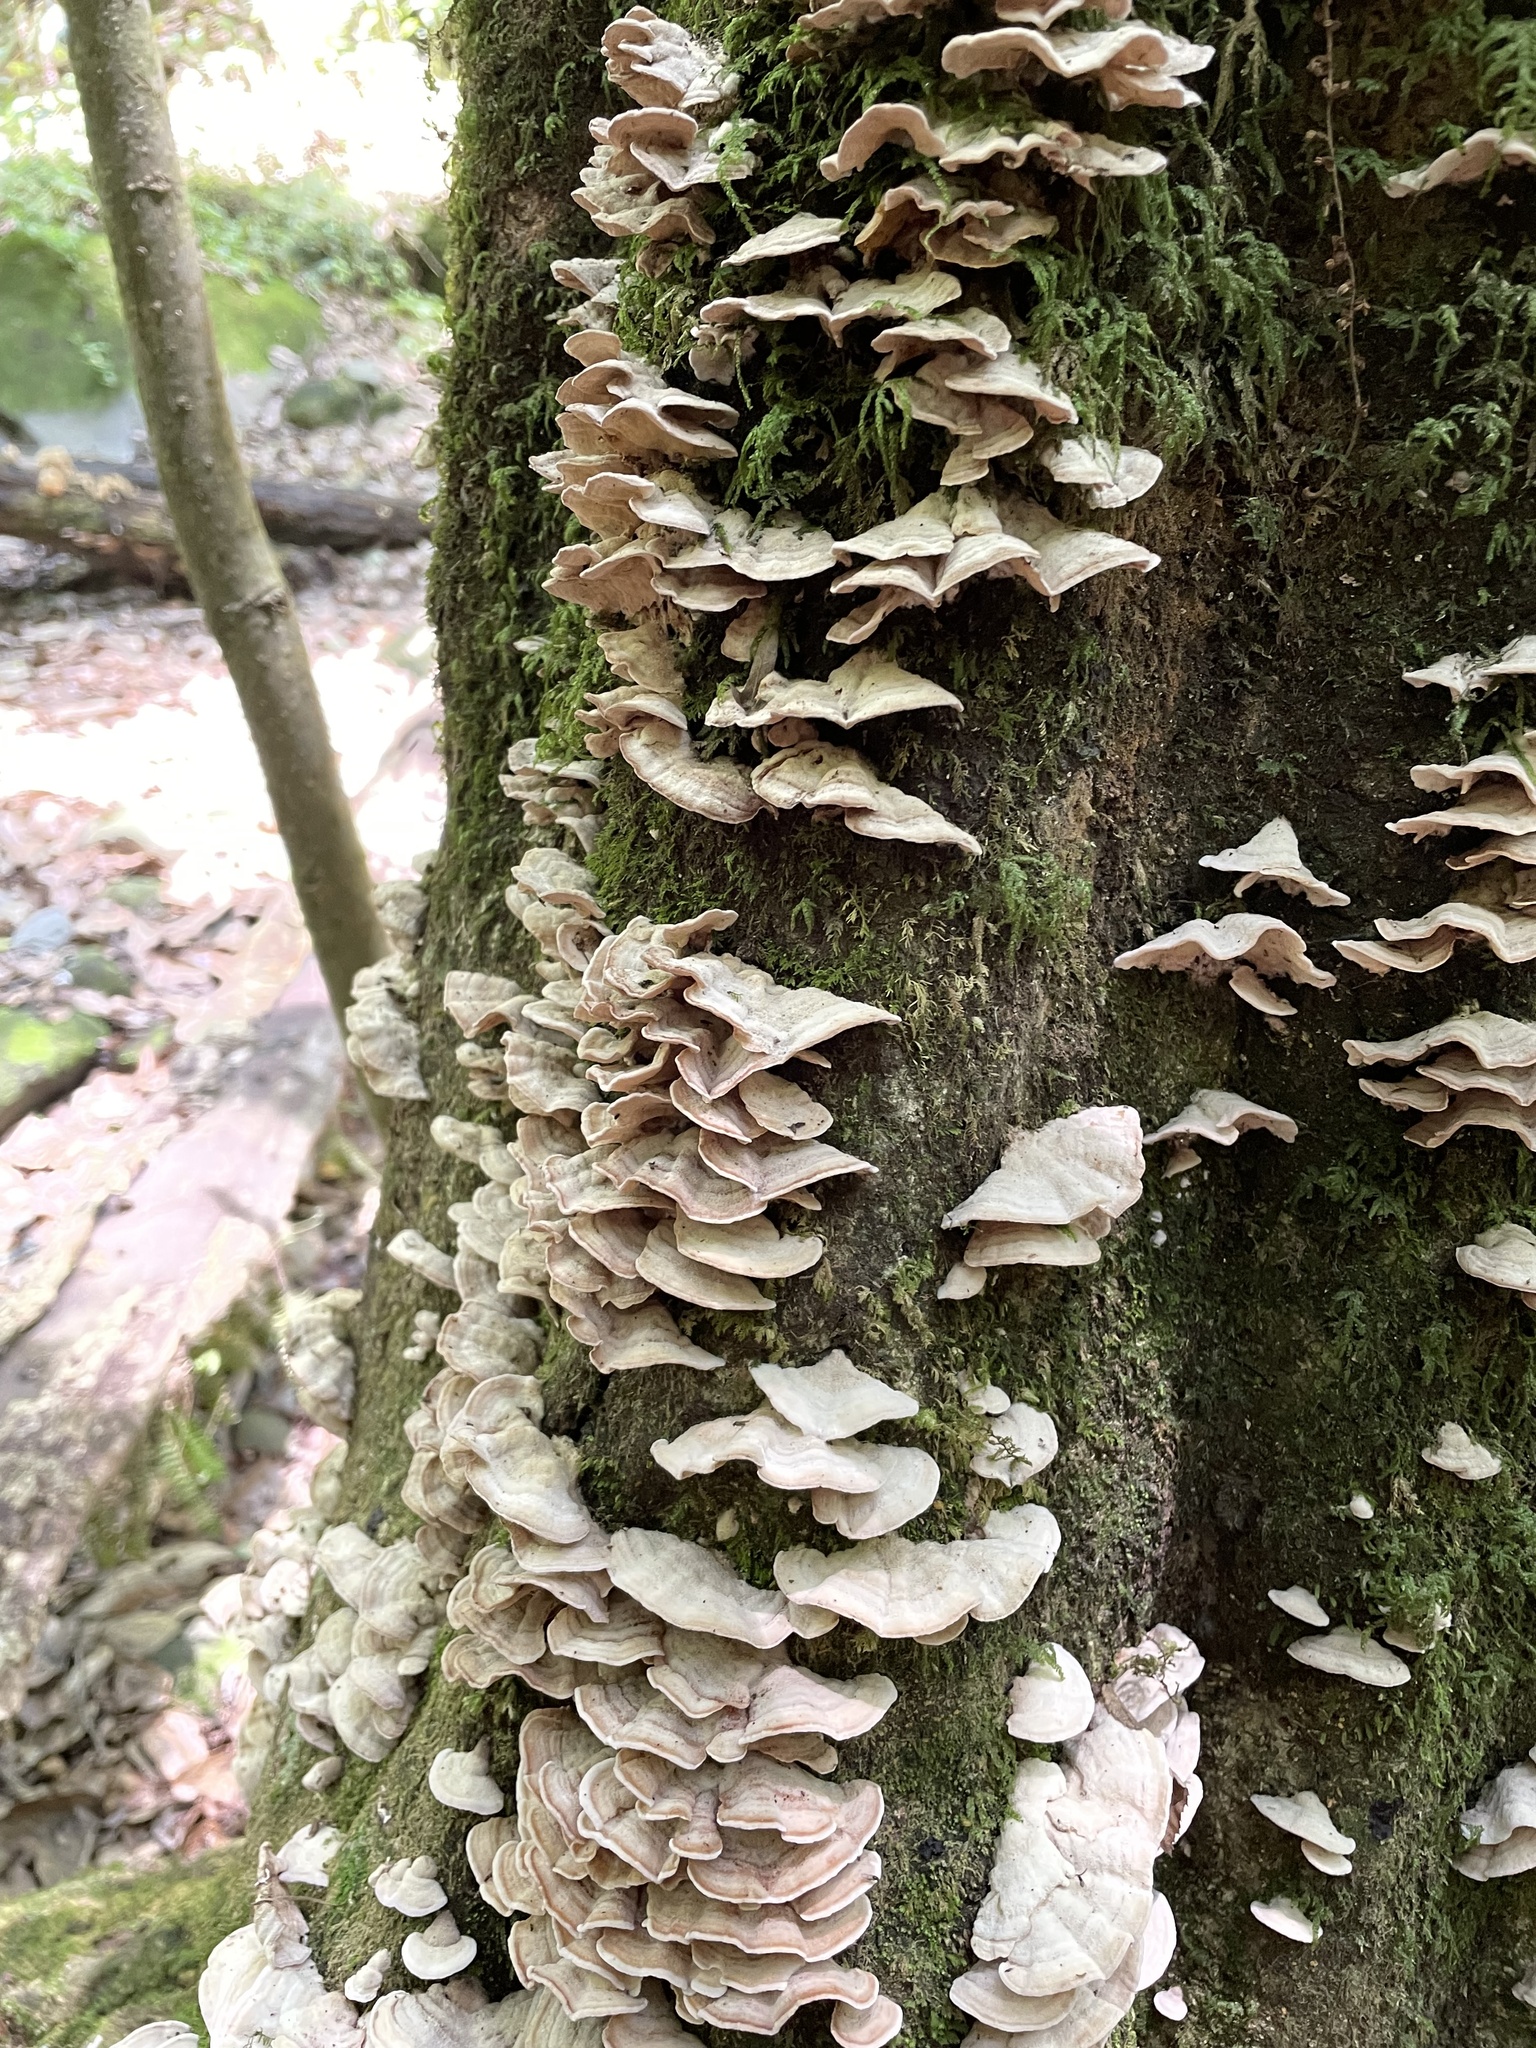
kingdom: Fungi
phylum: Basidiomycota
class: Agaricomycetes
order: Polyporales
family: Cerrenaceae
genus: Cerrena
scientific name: Cerrena unicolor
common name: Mossy maze polypore
